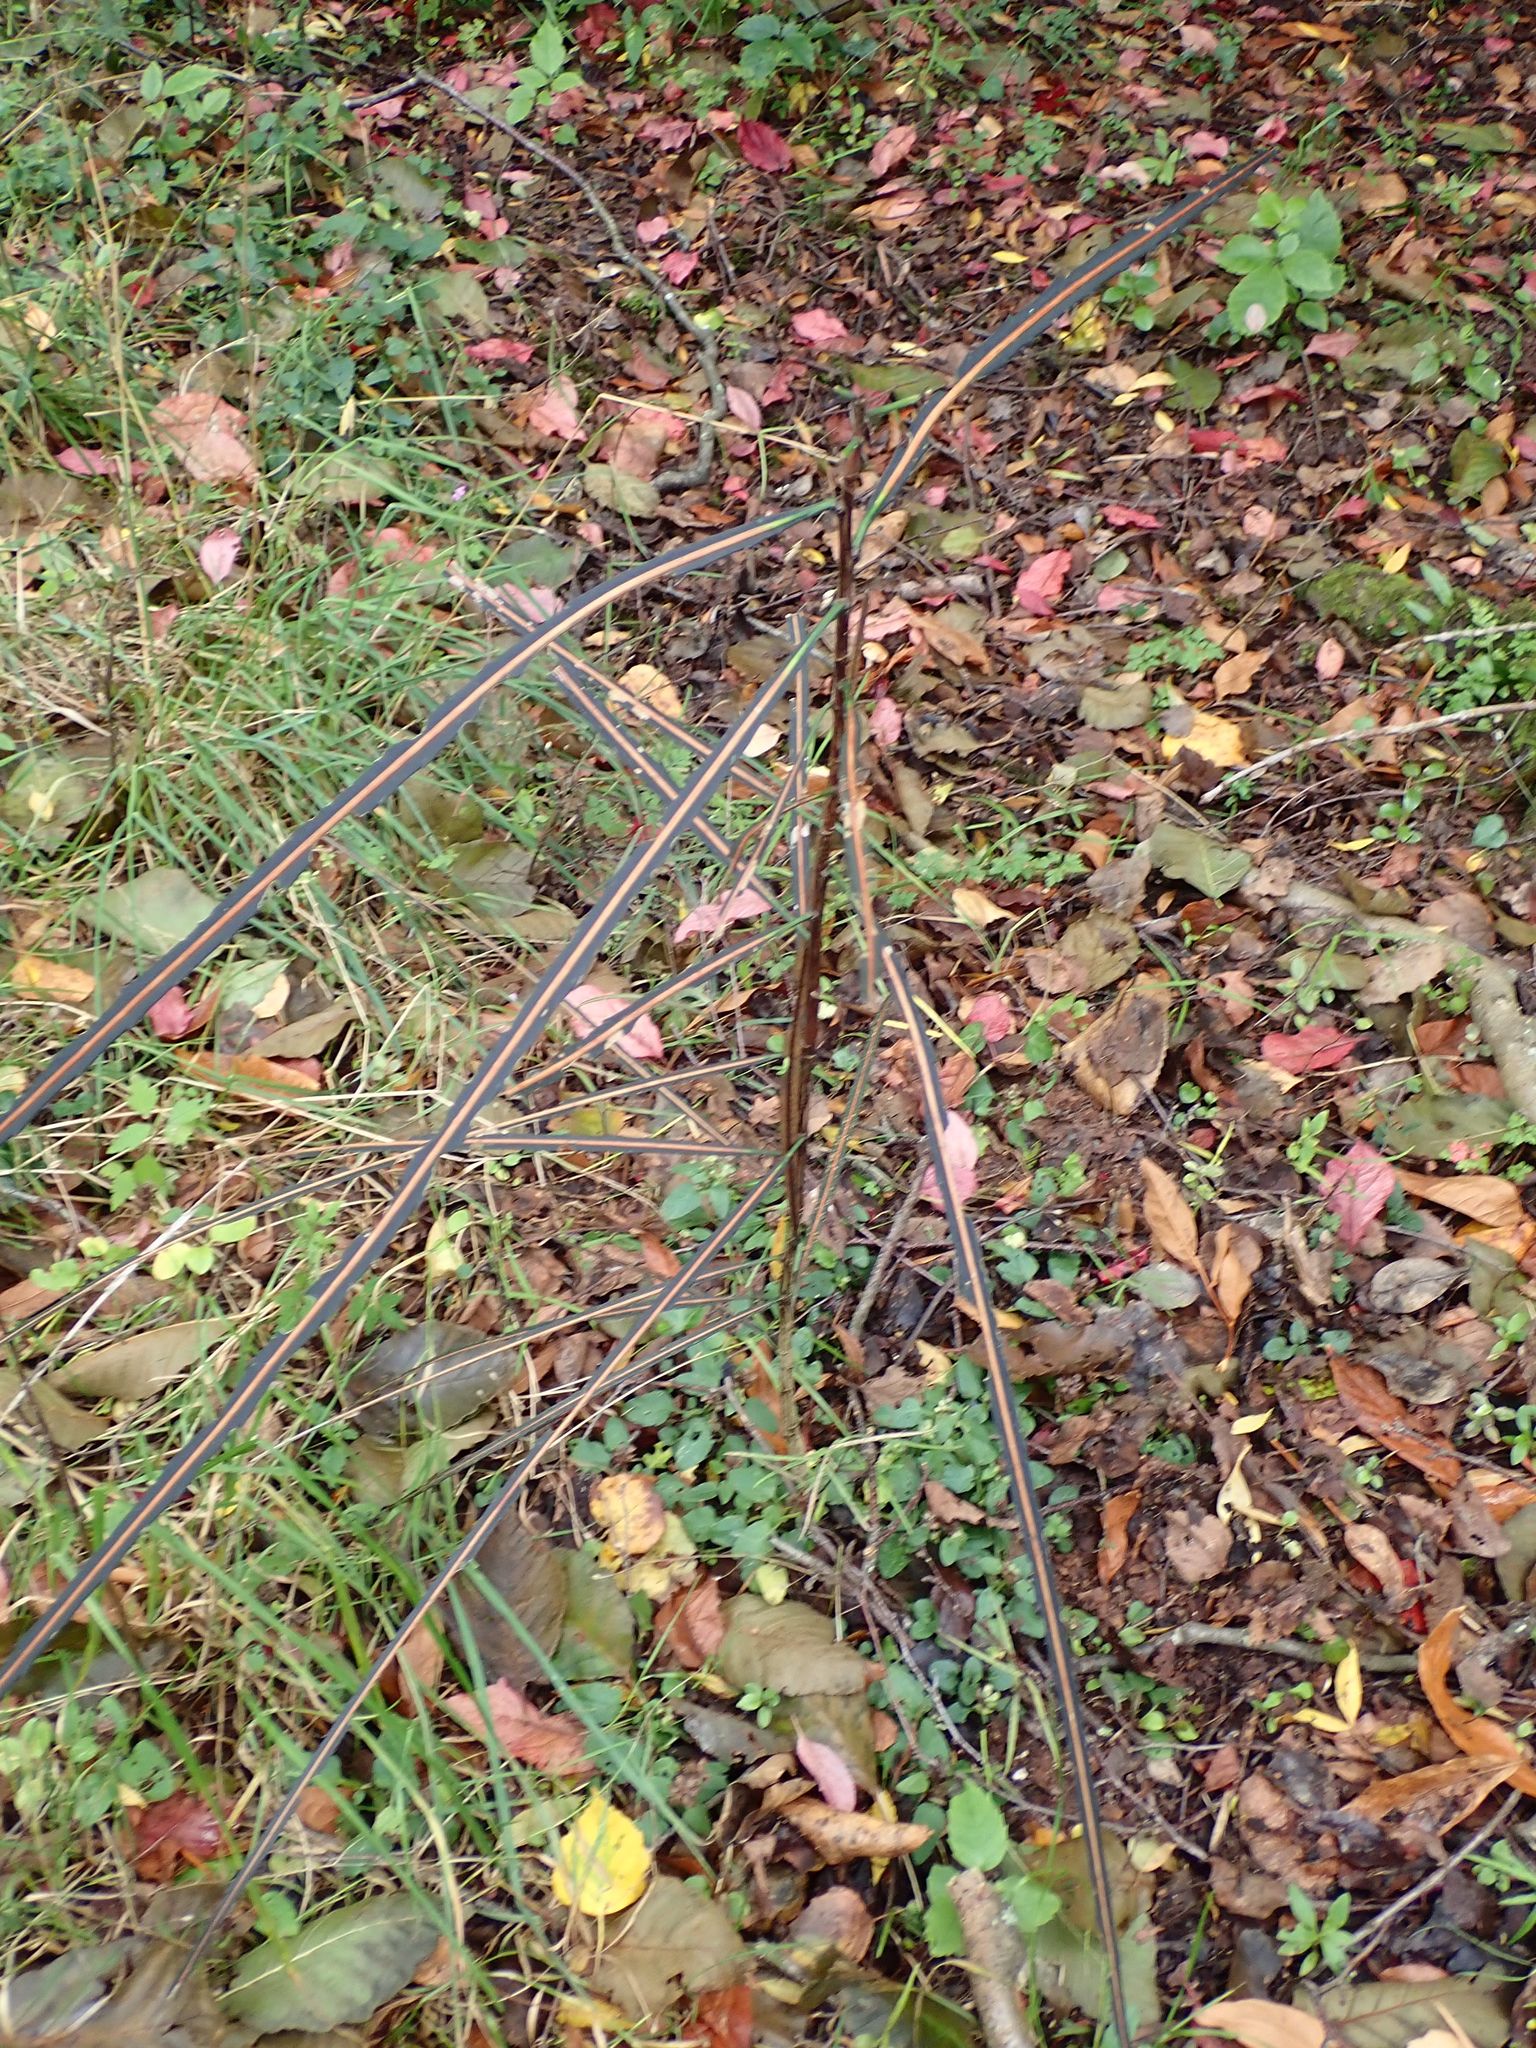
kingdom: Plantae
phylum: Tracheophyta
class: Magnoliopsida
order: Apiales
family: Araliaceae
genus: Pseudopanax
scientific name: Pseudopanax crassifolius
